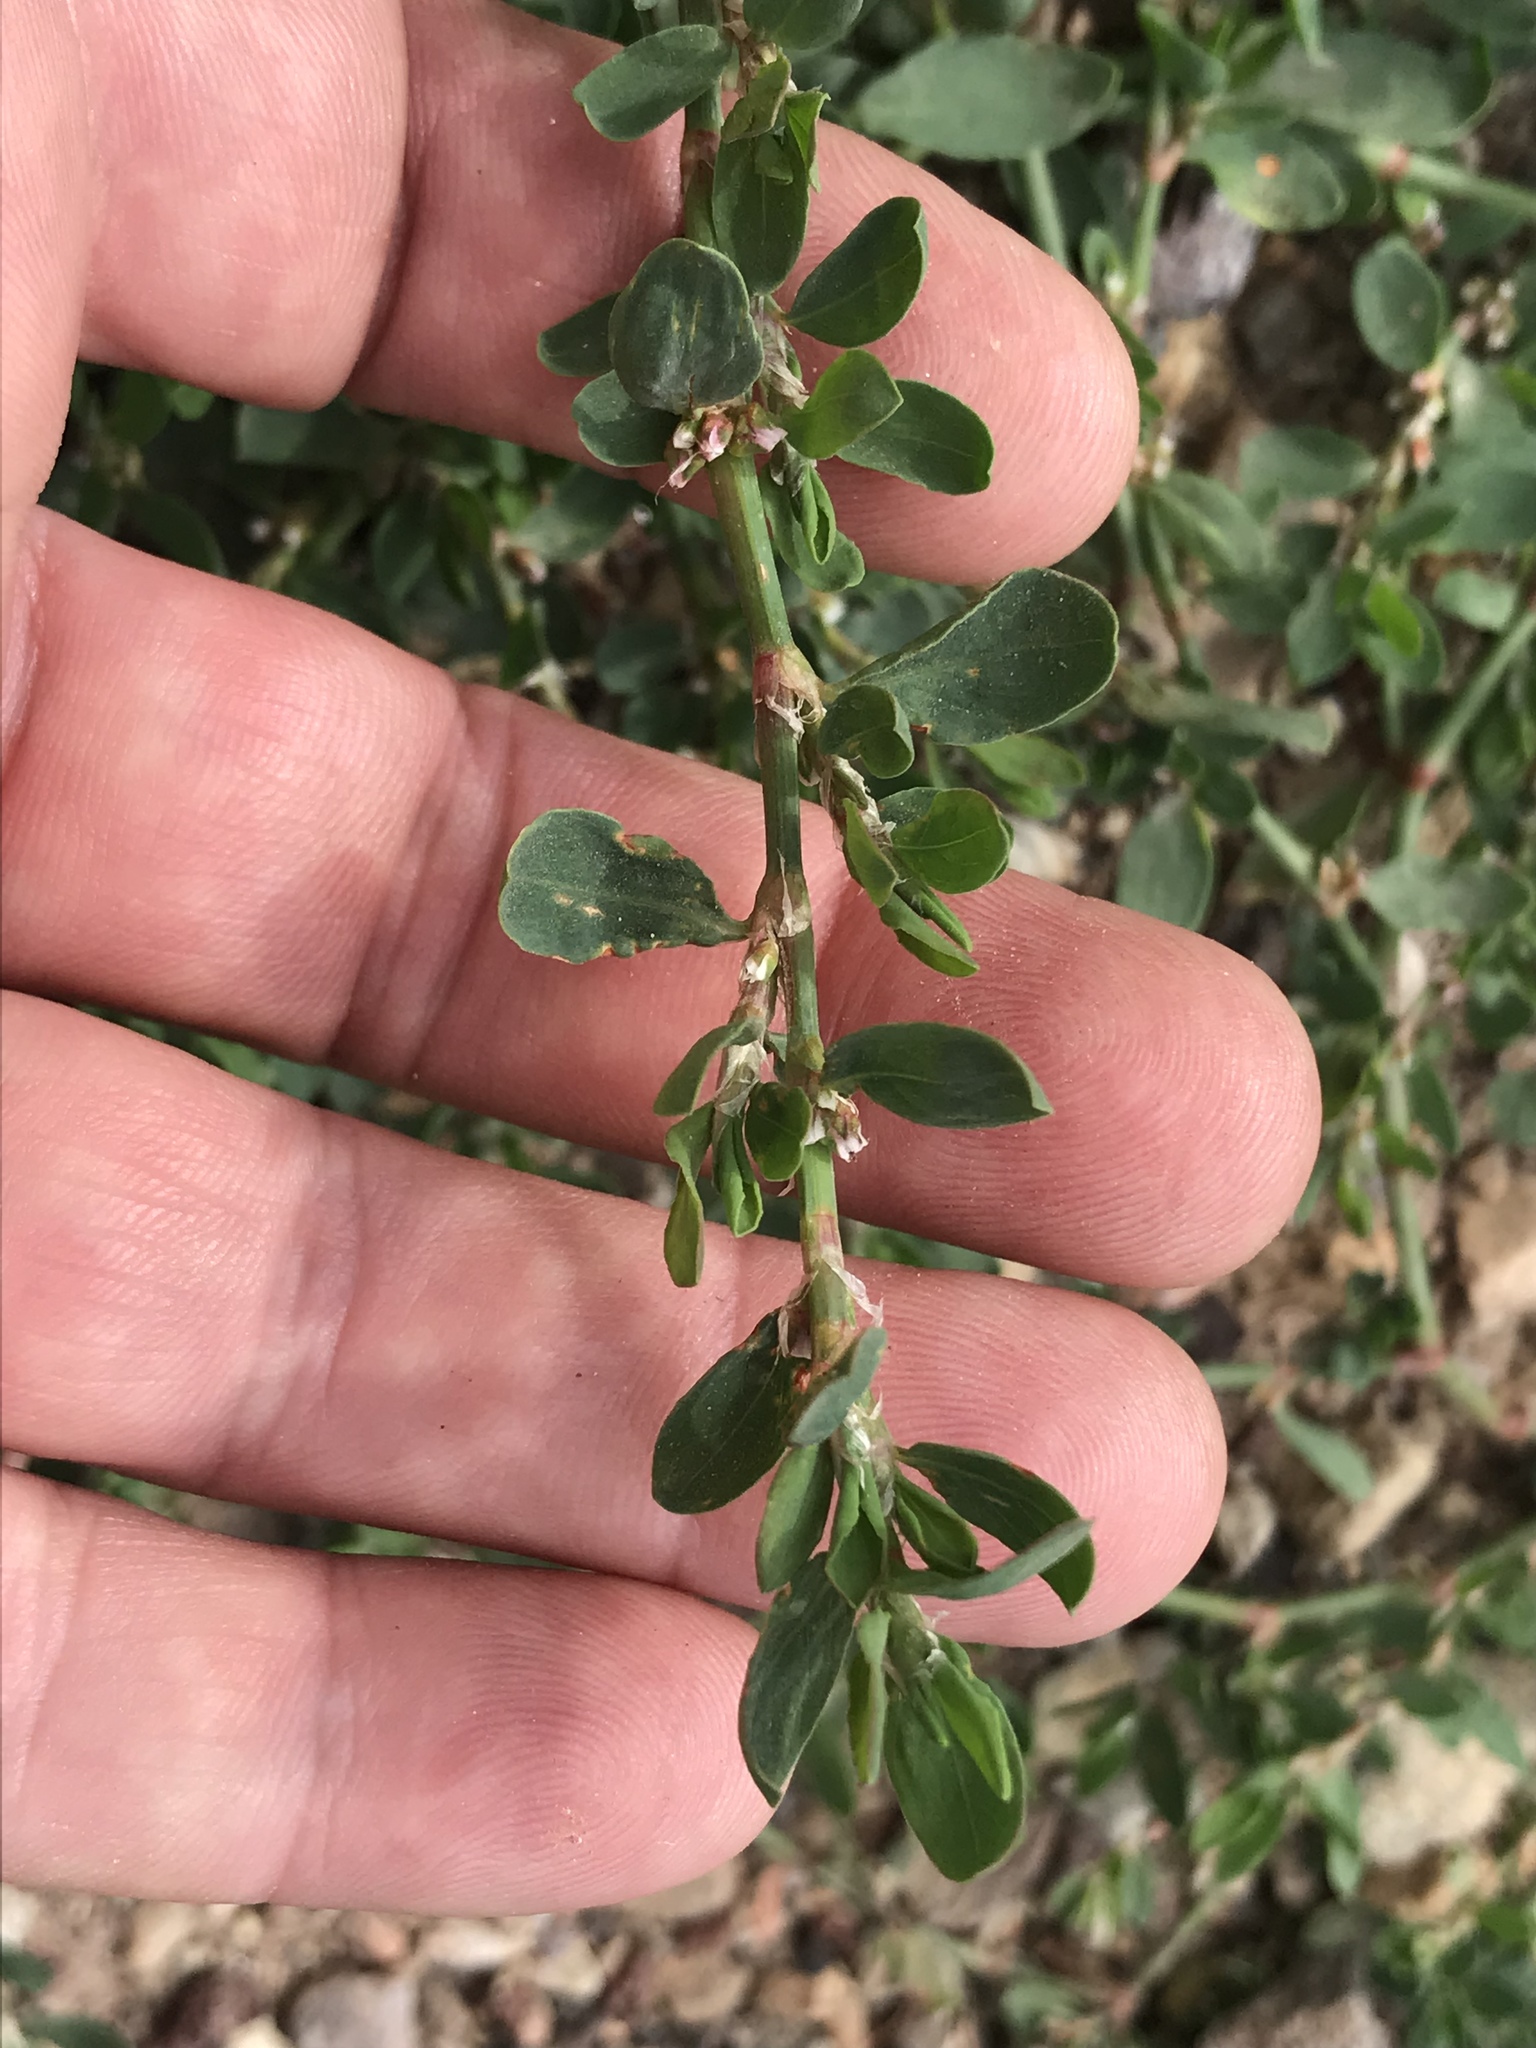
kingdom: Plantae
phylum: Tracheophyta
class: Magnoliopsida
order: Caryophyllales
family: Polygonaceae
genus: Polygonum
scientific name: Polygonum aviculare
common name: Prostrate knotweed
